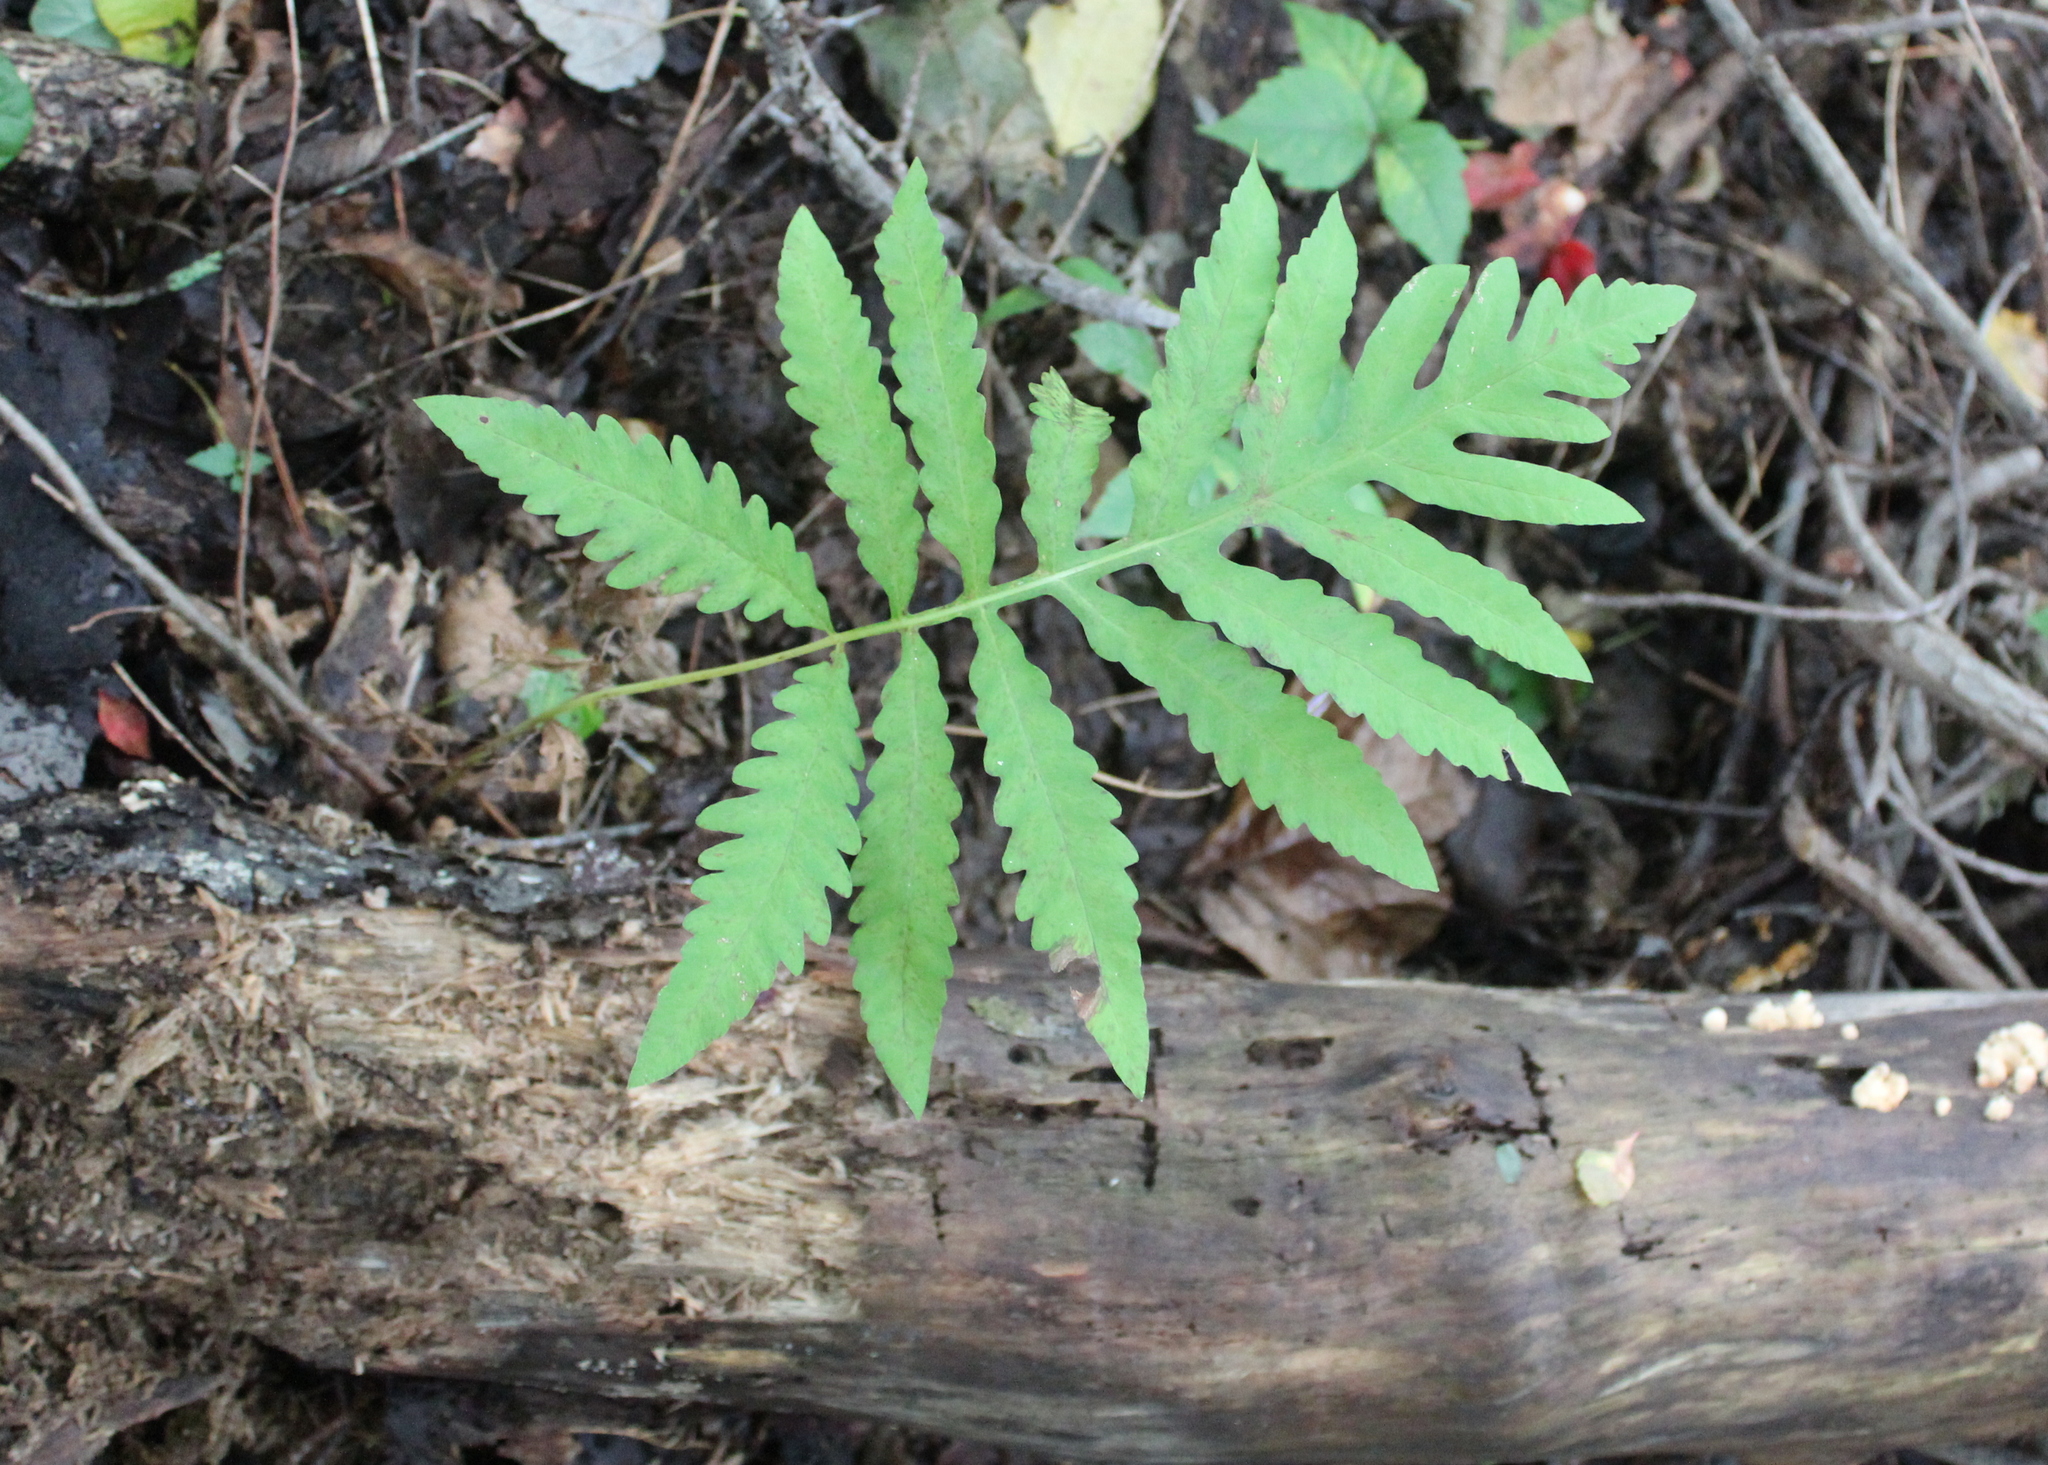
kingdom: Plantae
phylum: Tracheophyta
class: Polypodiopsida
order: Polypodiales
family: Onocleaceae
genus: Onoclea
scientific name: Onoclea sensibilis
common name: Sensitive fern
